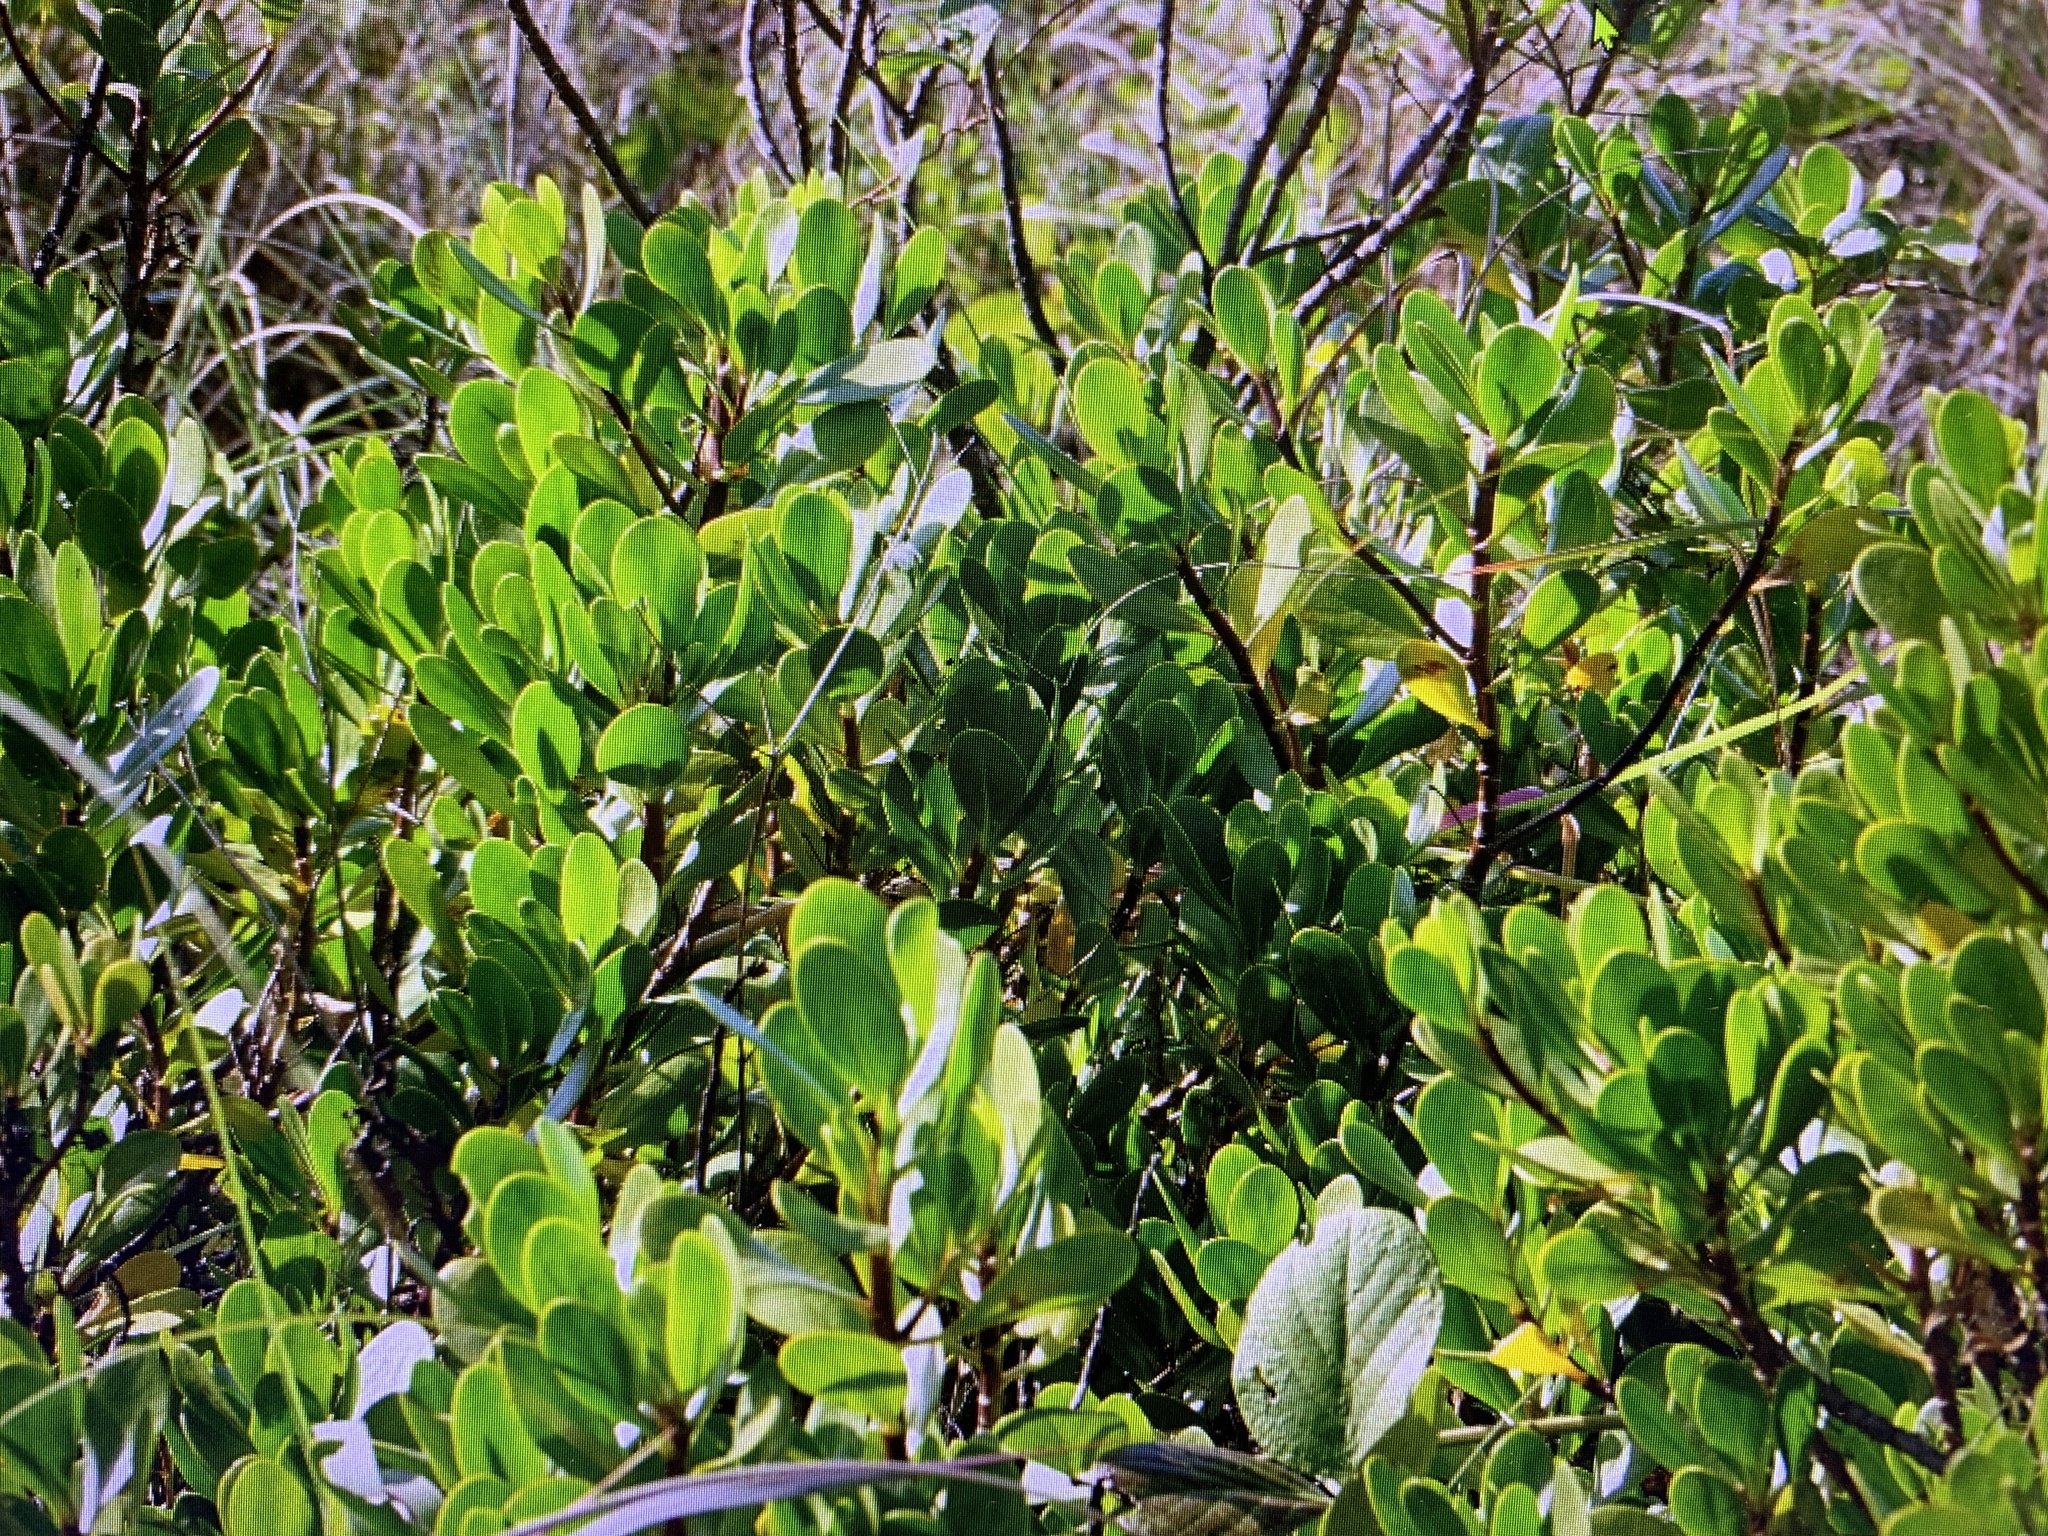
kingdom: Plantae
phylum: Tracheophyta
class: Magnoliopsida
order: Asterales
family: Goodeniaceae
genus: Scaevola
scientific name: Scaevola plumieri
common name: Gull feed
